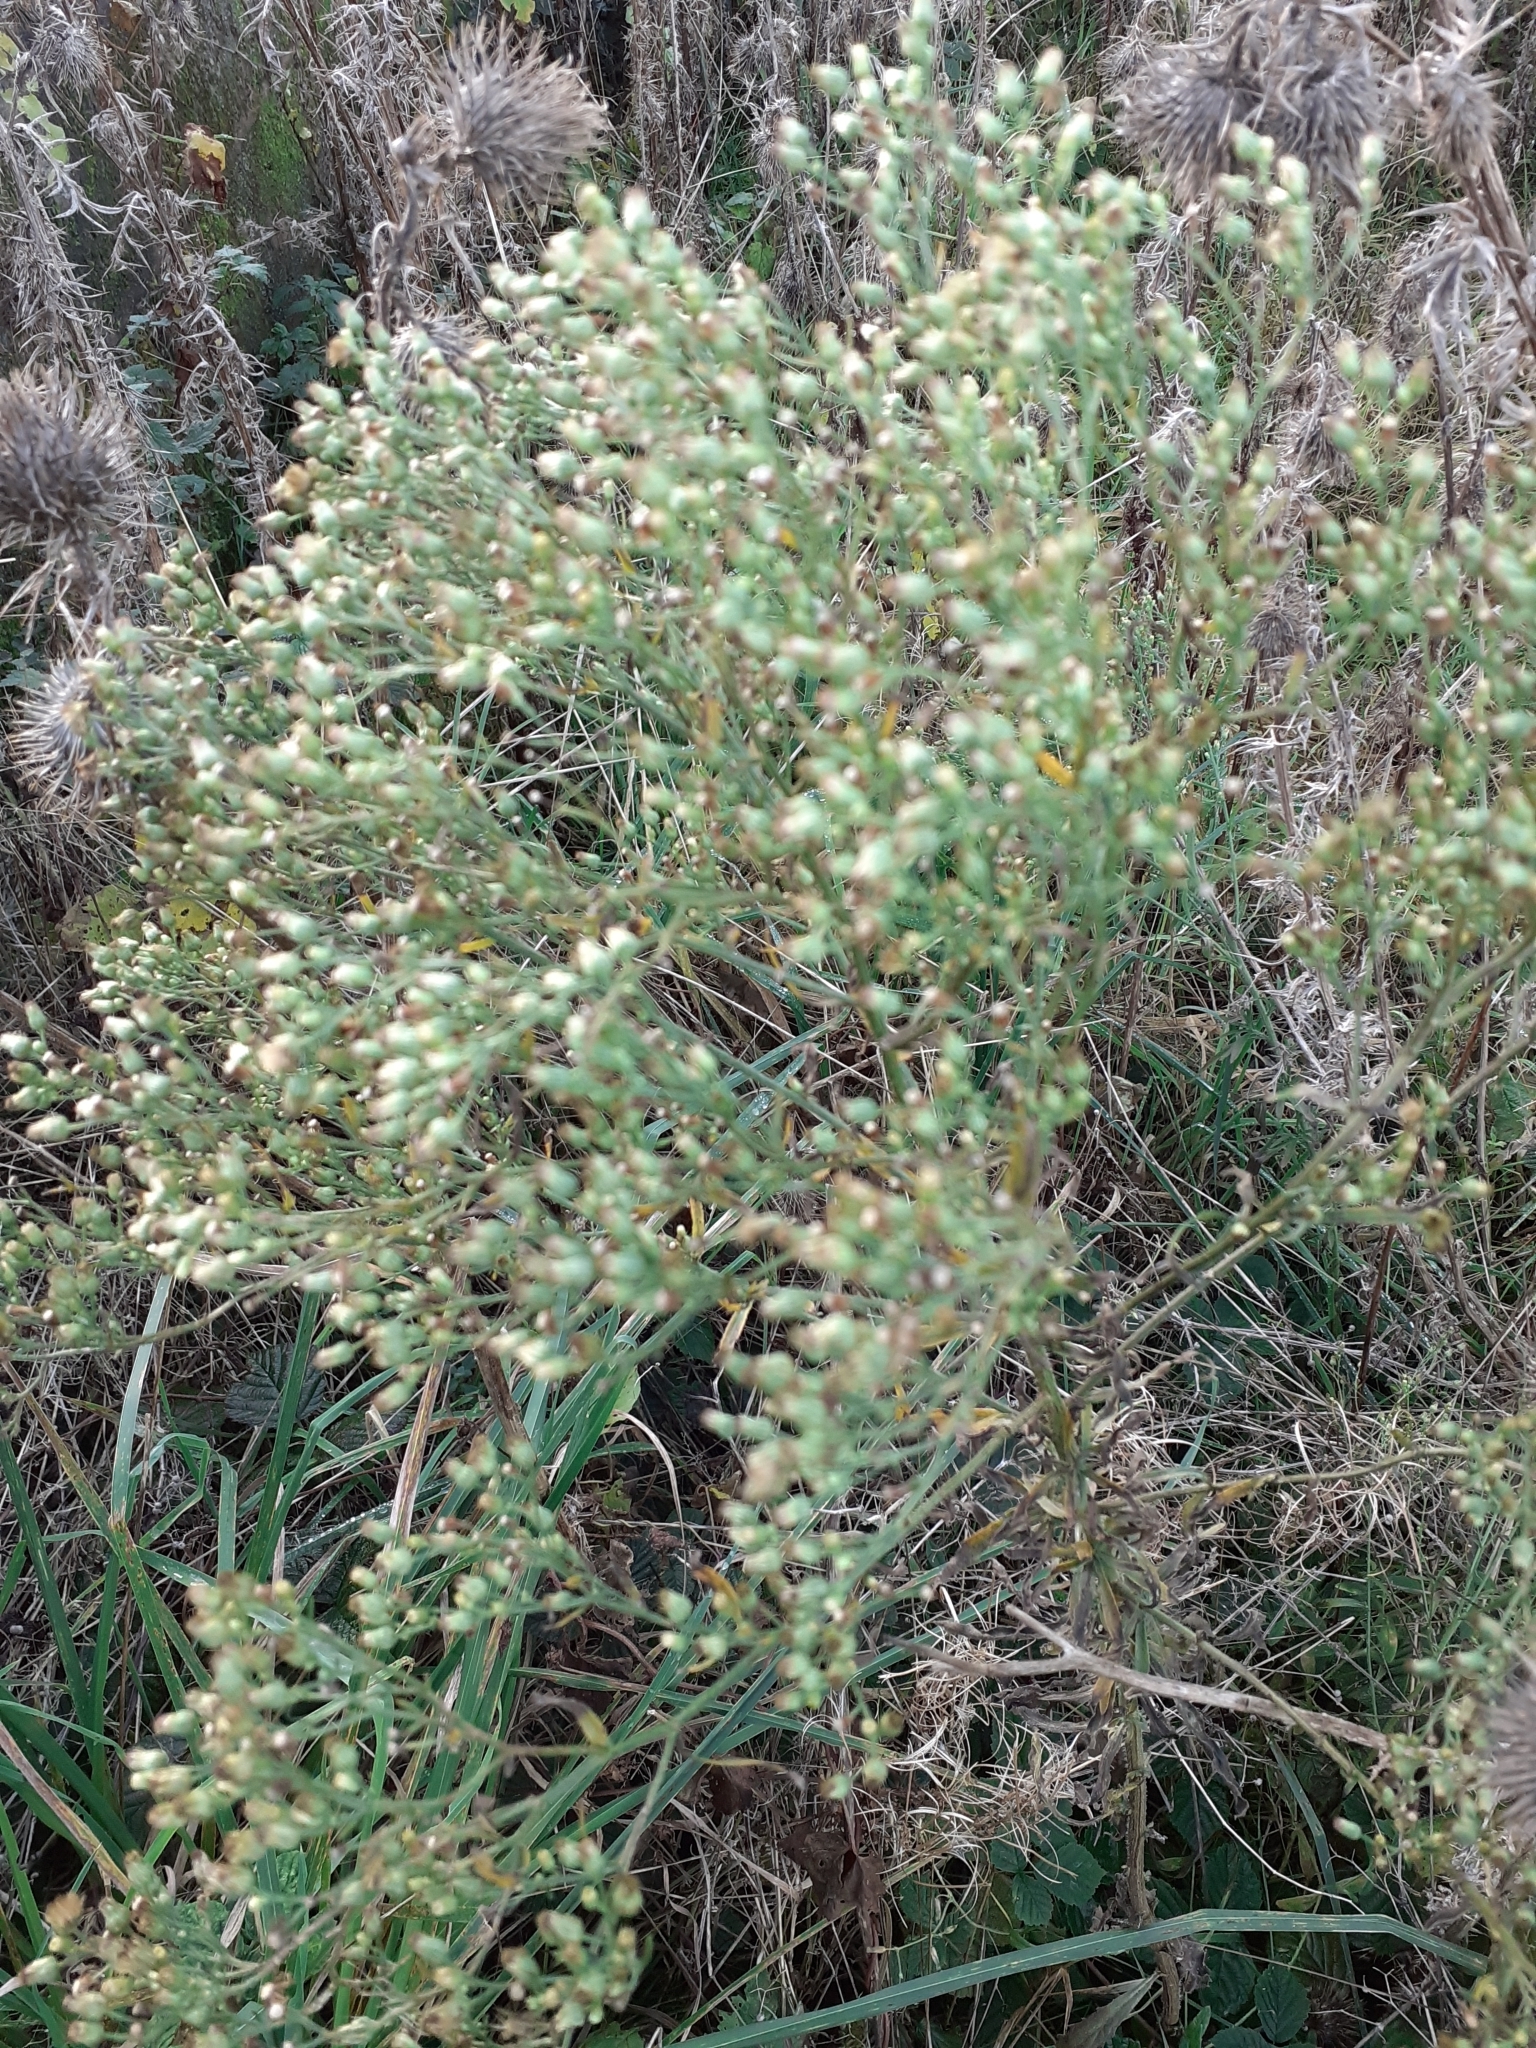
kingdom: Plantae
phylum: Tracheophyta
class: Magnoliopsida
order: Asterales
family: Asteraceae
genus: Erigeron
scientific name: Erigeron canadensis
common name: Canadian fleabane
